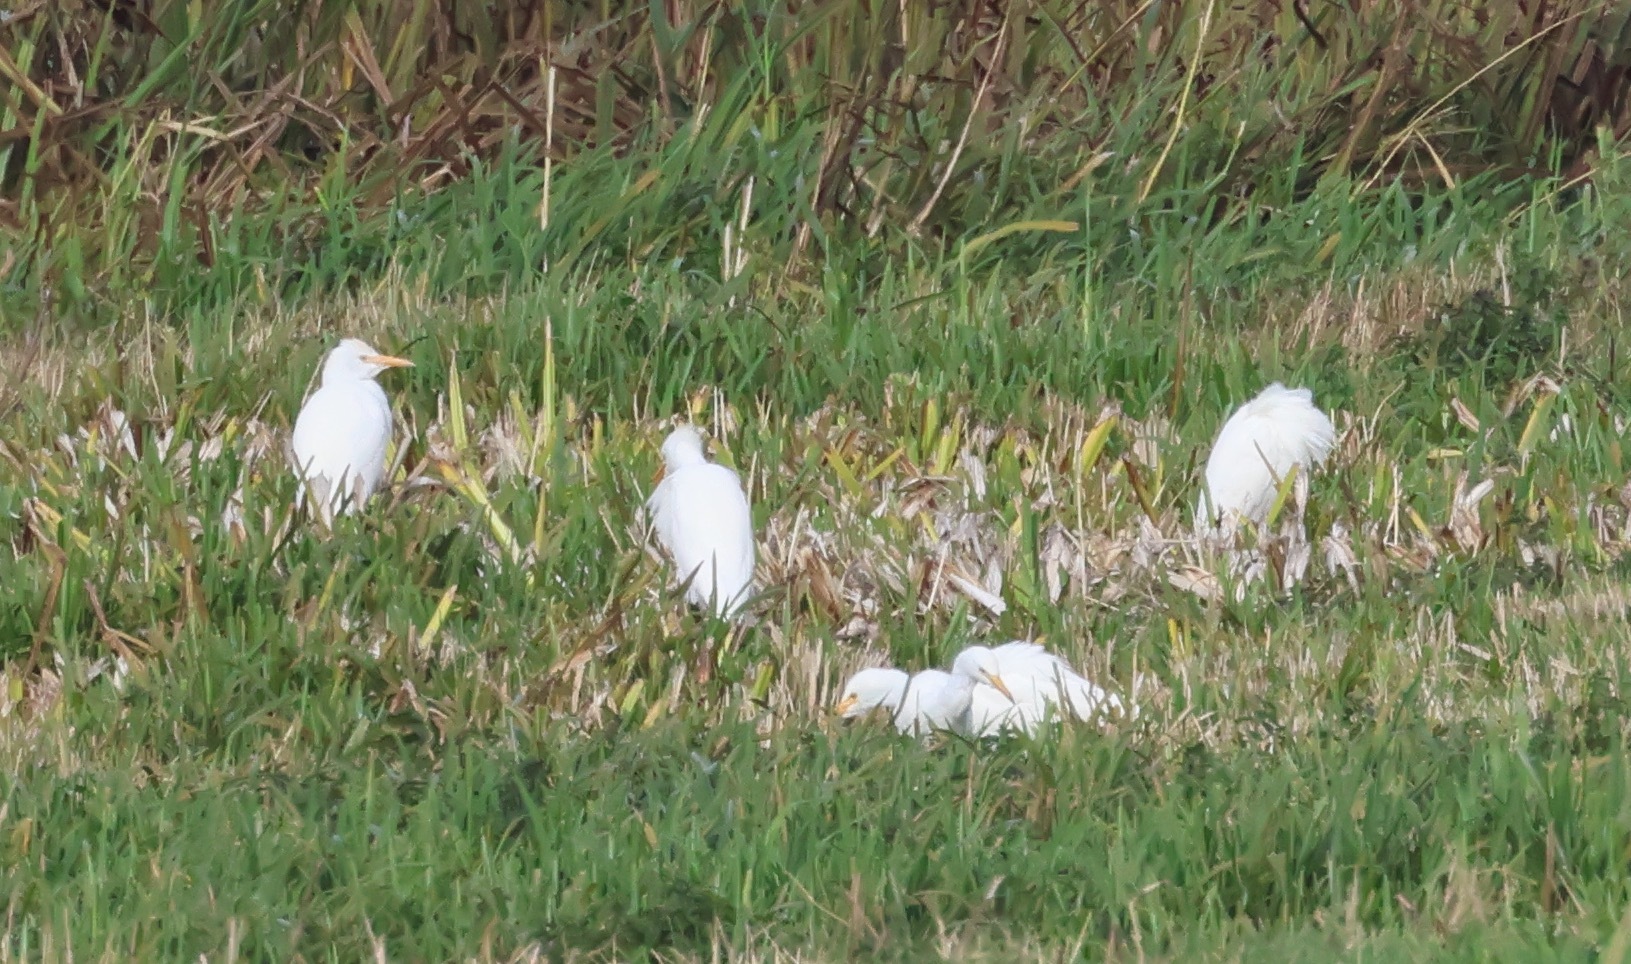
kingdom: Animalia
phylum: Chordata
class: Aves
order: Pelecaniformes
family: Ardeidae
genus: Bubulcus
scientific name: Bubulcus ibis
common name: Cattle egret
